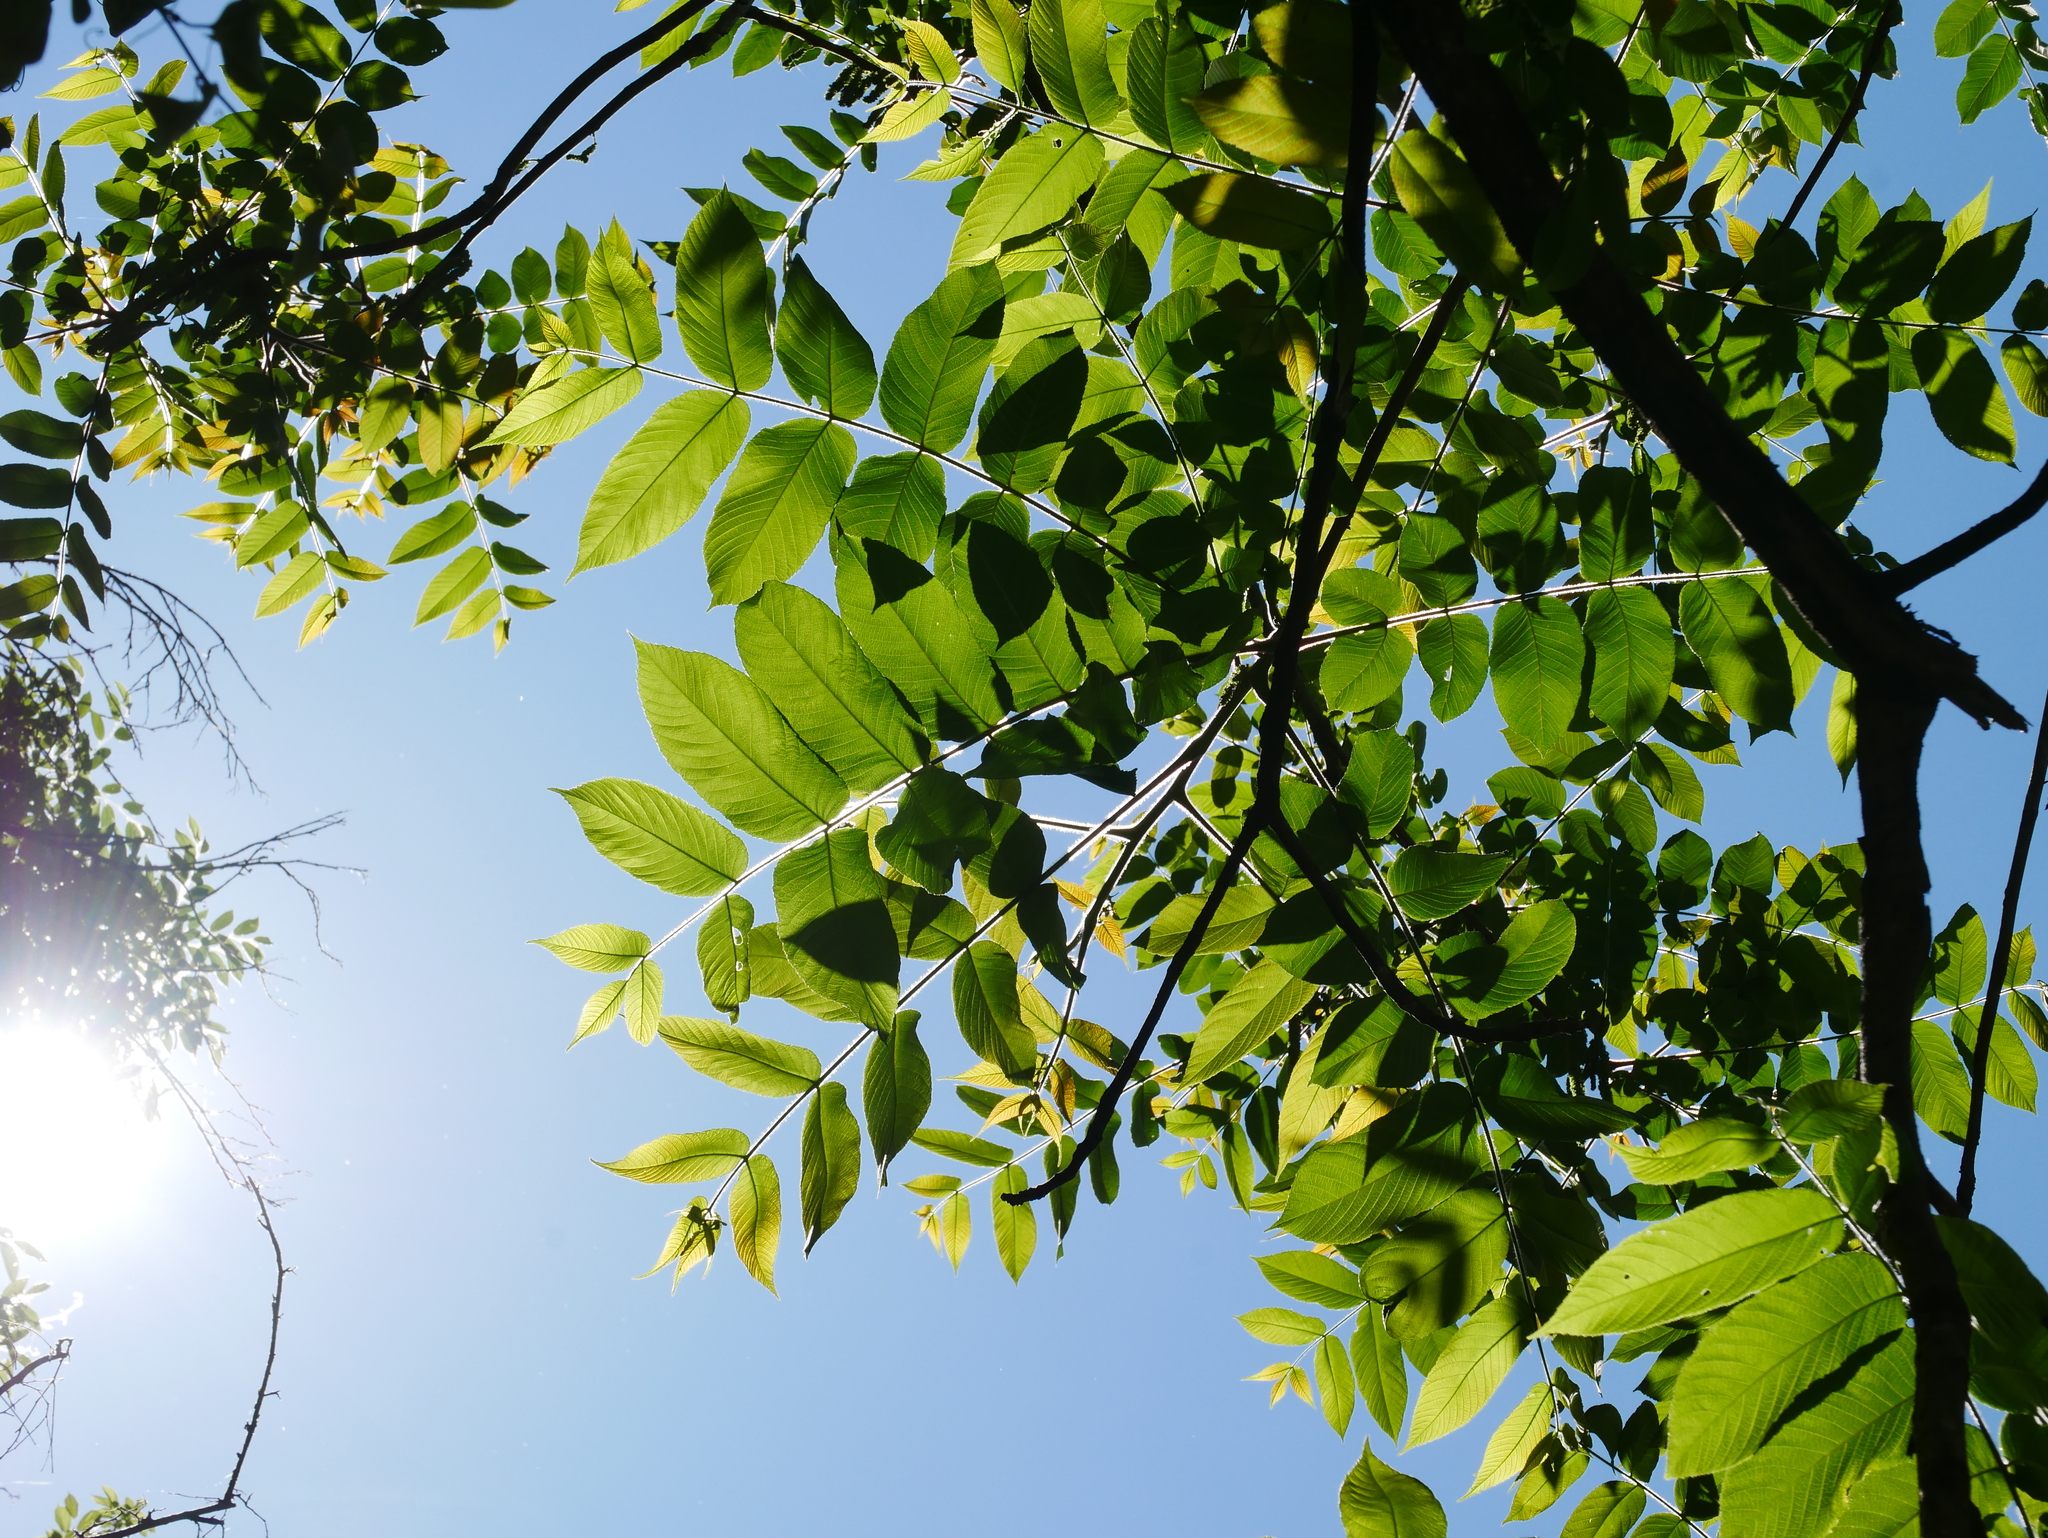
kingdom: Plantae
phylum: Tracheophyta
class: Magnoliopsida
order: Fagales
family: Juglandaceae
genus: Juglans
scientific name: Juglans mandshurica
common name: Manchurian walnut
